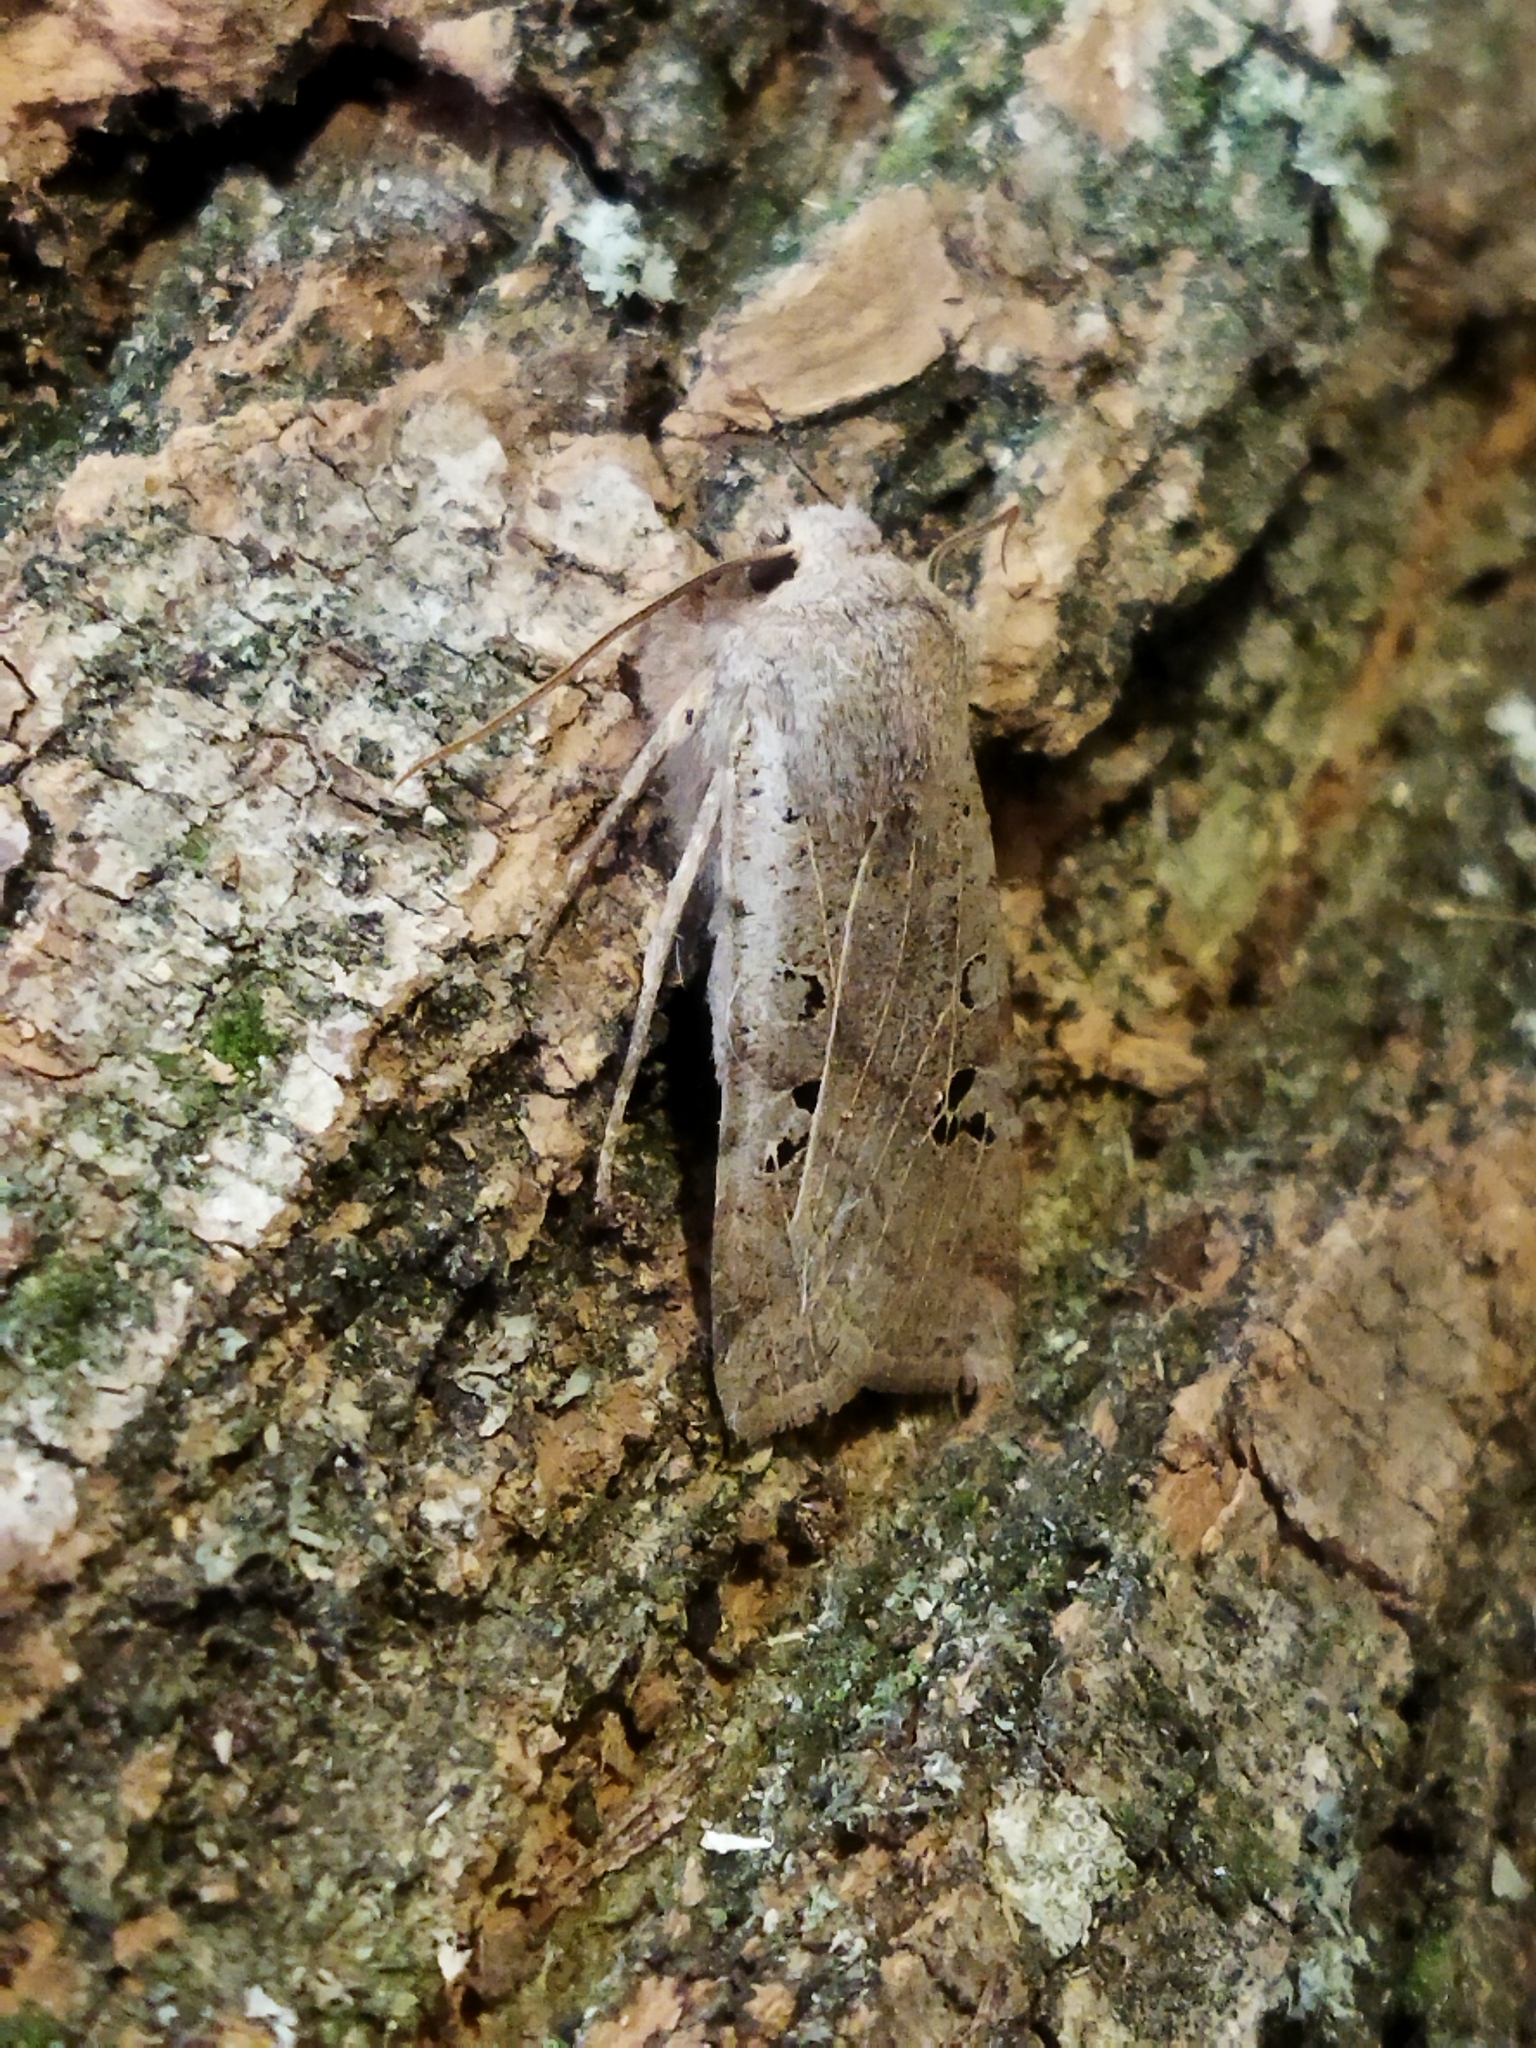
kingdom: Animalia
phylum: Arthropoda
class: Insecta
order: Lepidoptera
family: Noctuidae
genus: Conistra
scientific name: Conistra rubiginosa
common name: Black-spotted chestnut
